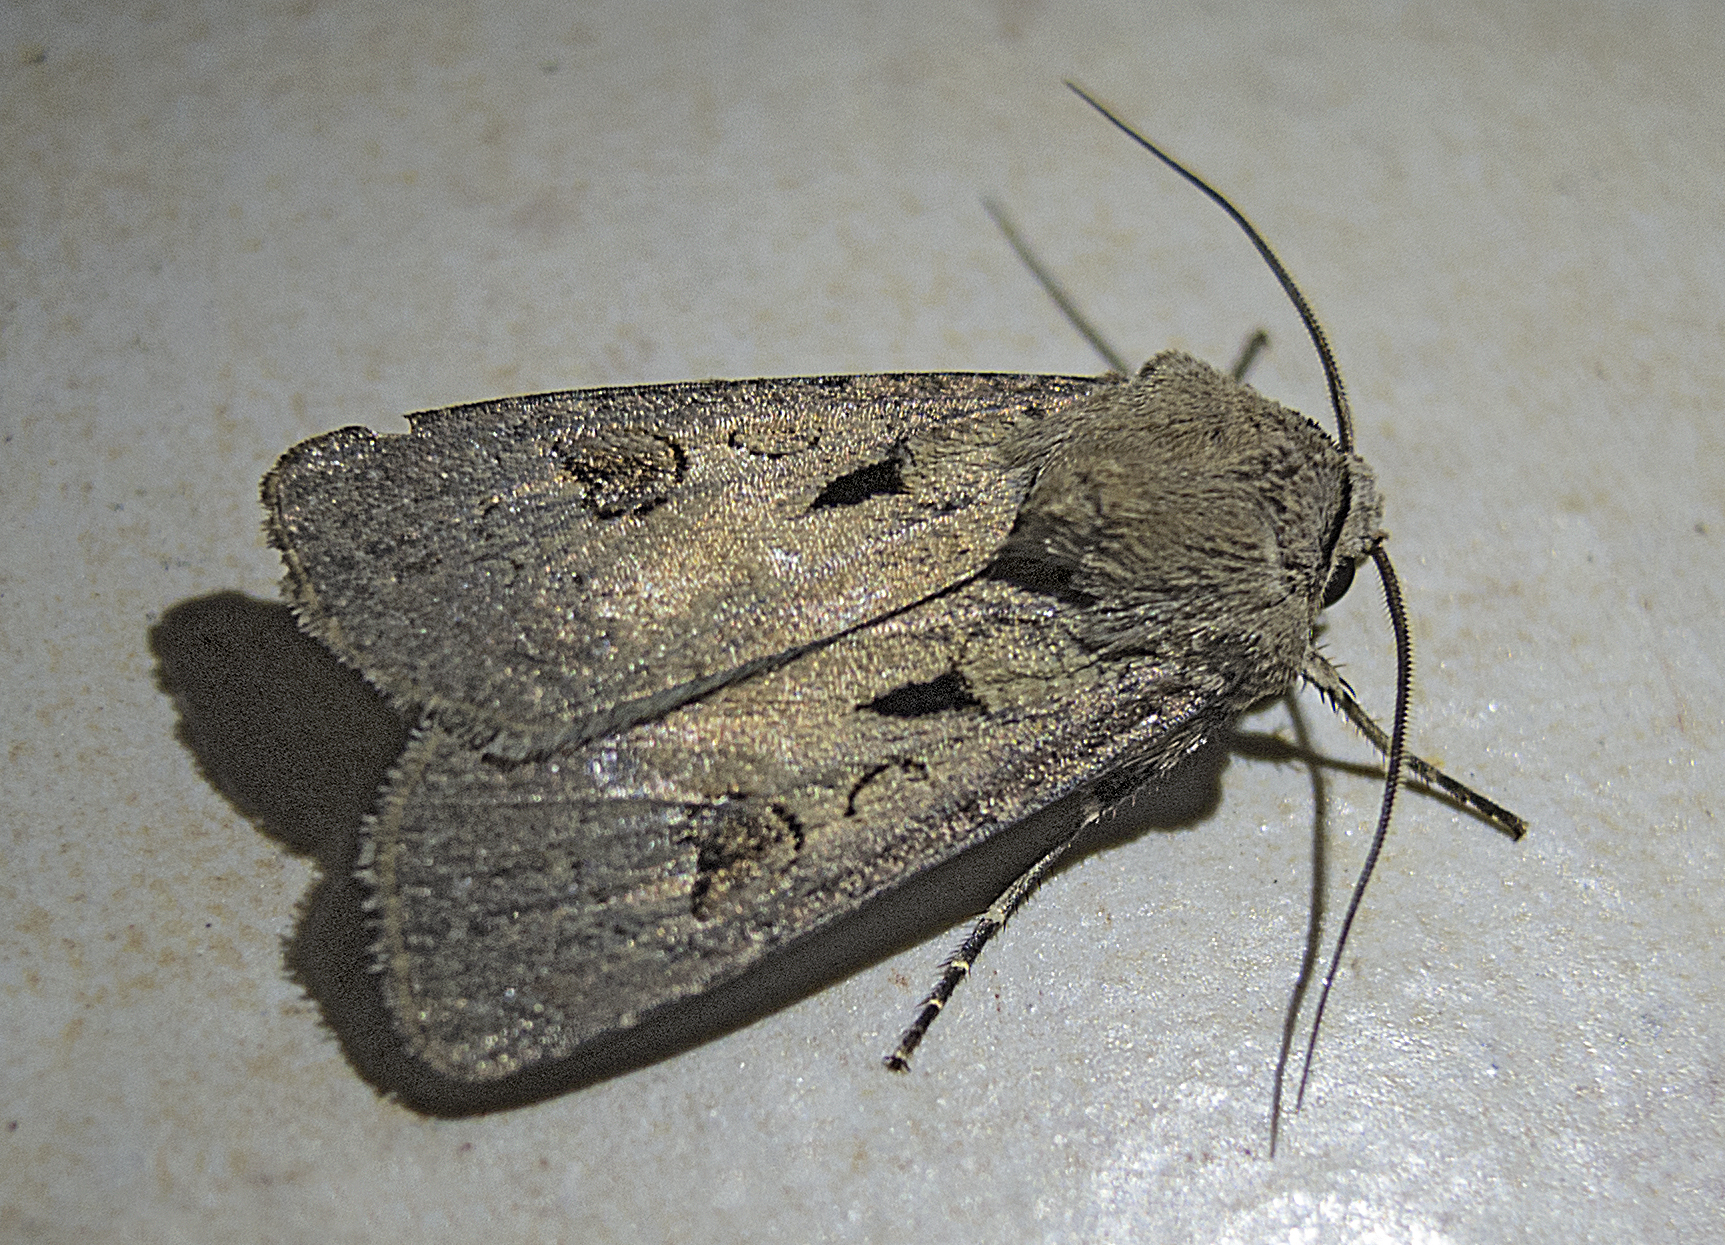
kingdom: Animalia
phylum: Arthropoda
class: Insecta
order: Lepidoptera
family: Noctuidae
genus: Agrotis
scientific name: Agrotis exclamationis
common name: Heart and dart
